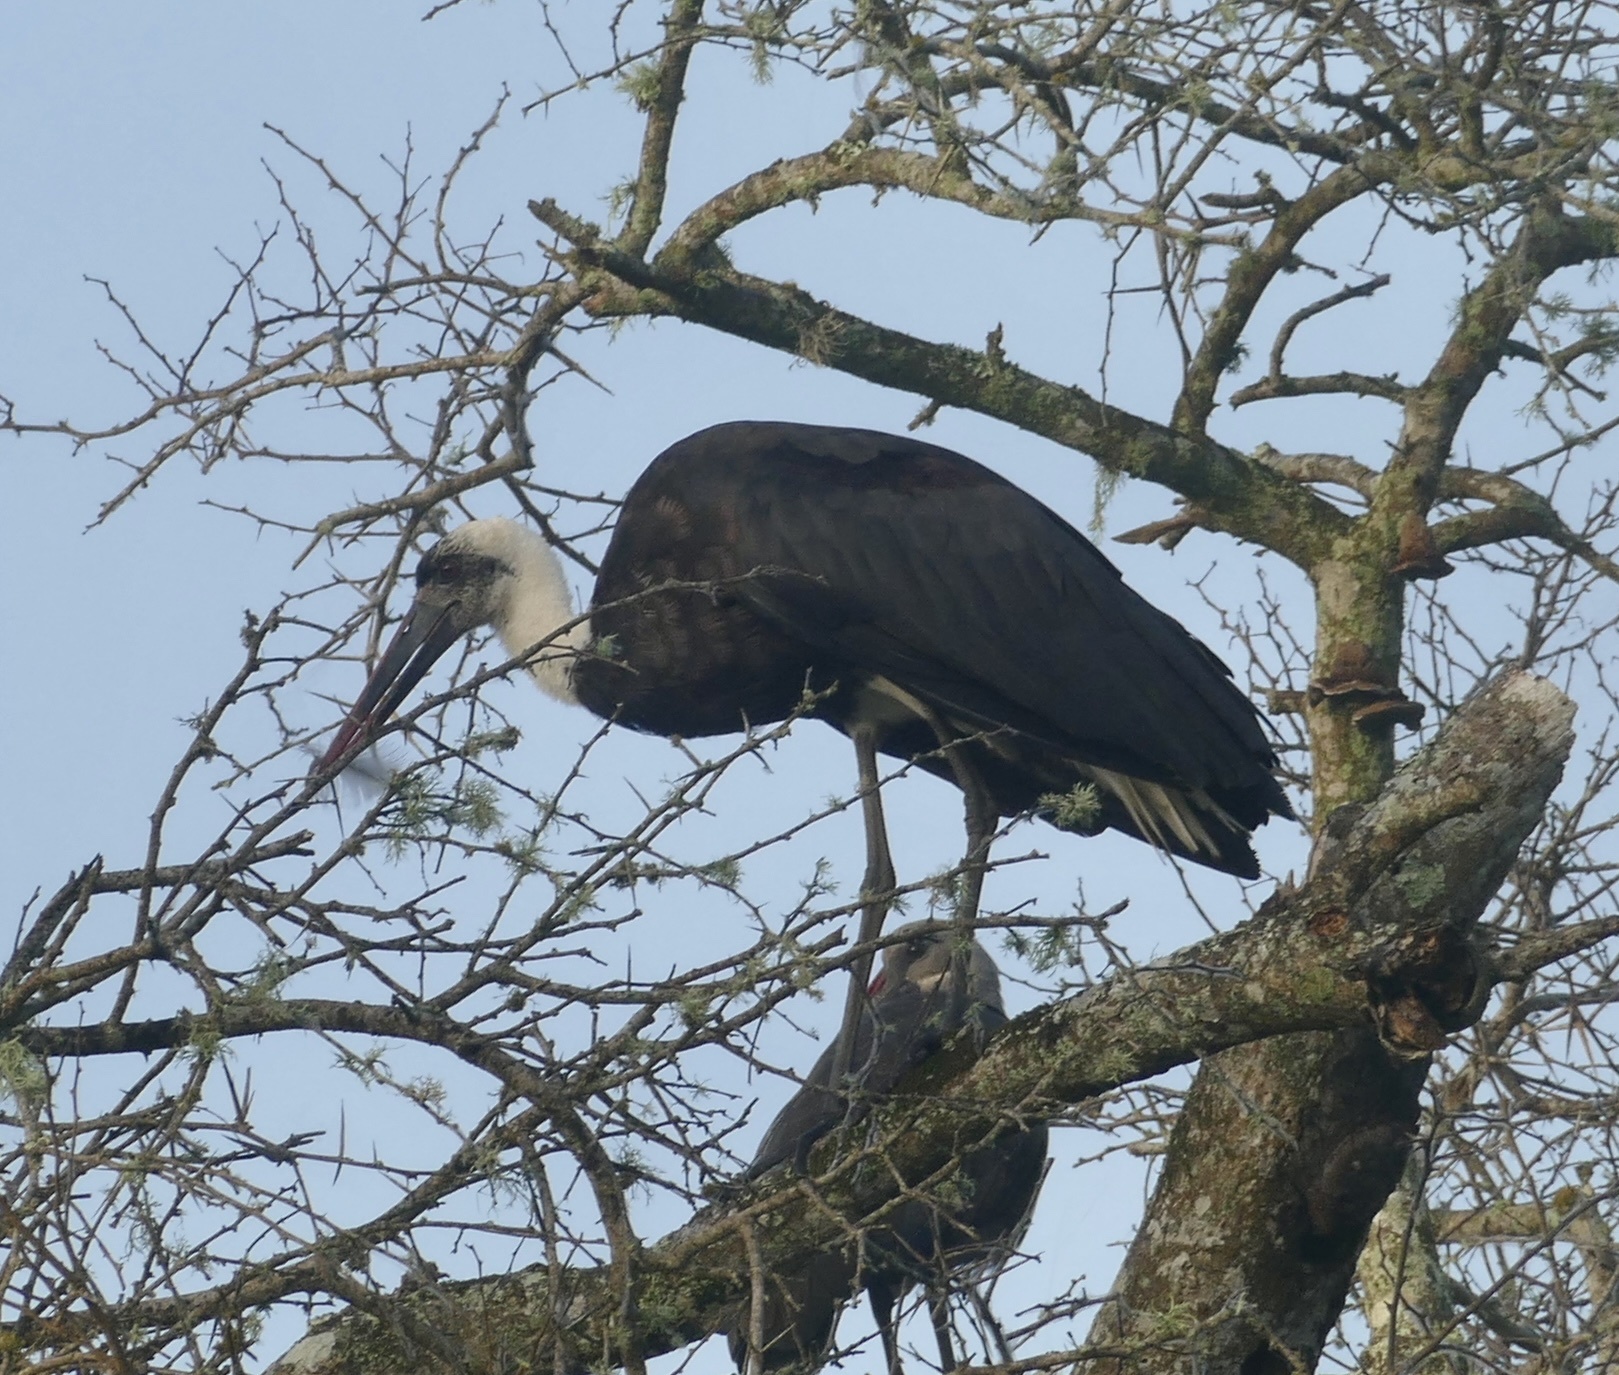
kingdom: Animalia
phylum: Chordata
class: Aves
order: Ciconiiformes
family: Ciconiidae
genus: Ciconia
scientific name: Ciconia microscelis
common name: African woollyneck
